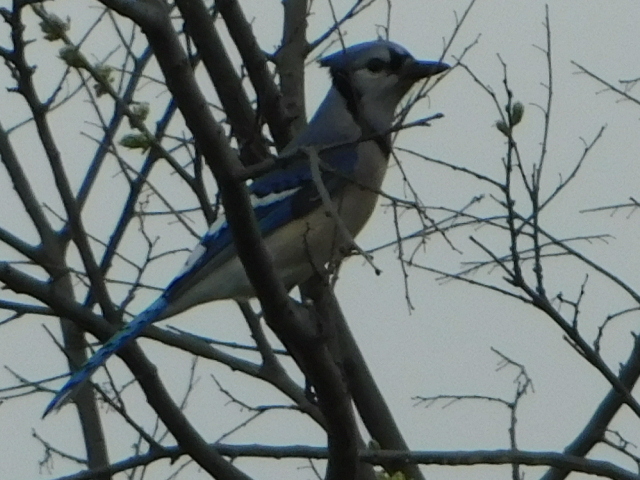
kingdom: Animalia
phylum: Chordata
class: Aves
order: Passeriformes
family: Corvidae
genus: Cyanocitta
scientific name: Cyanocitta cristata
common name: Blue jay
